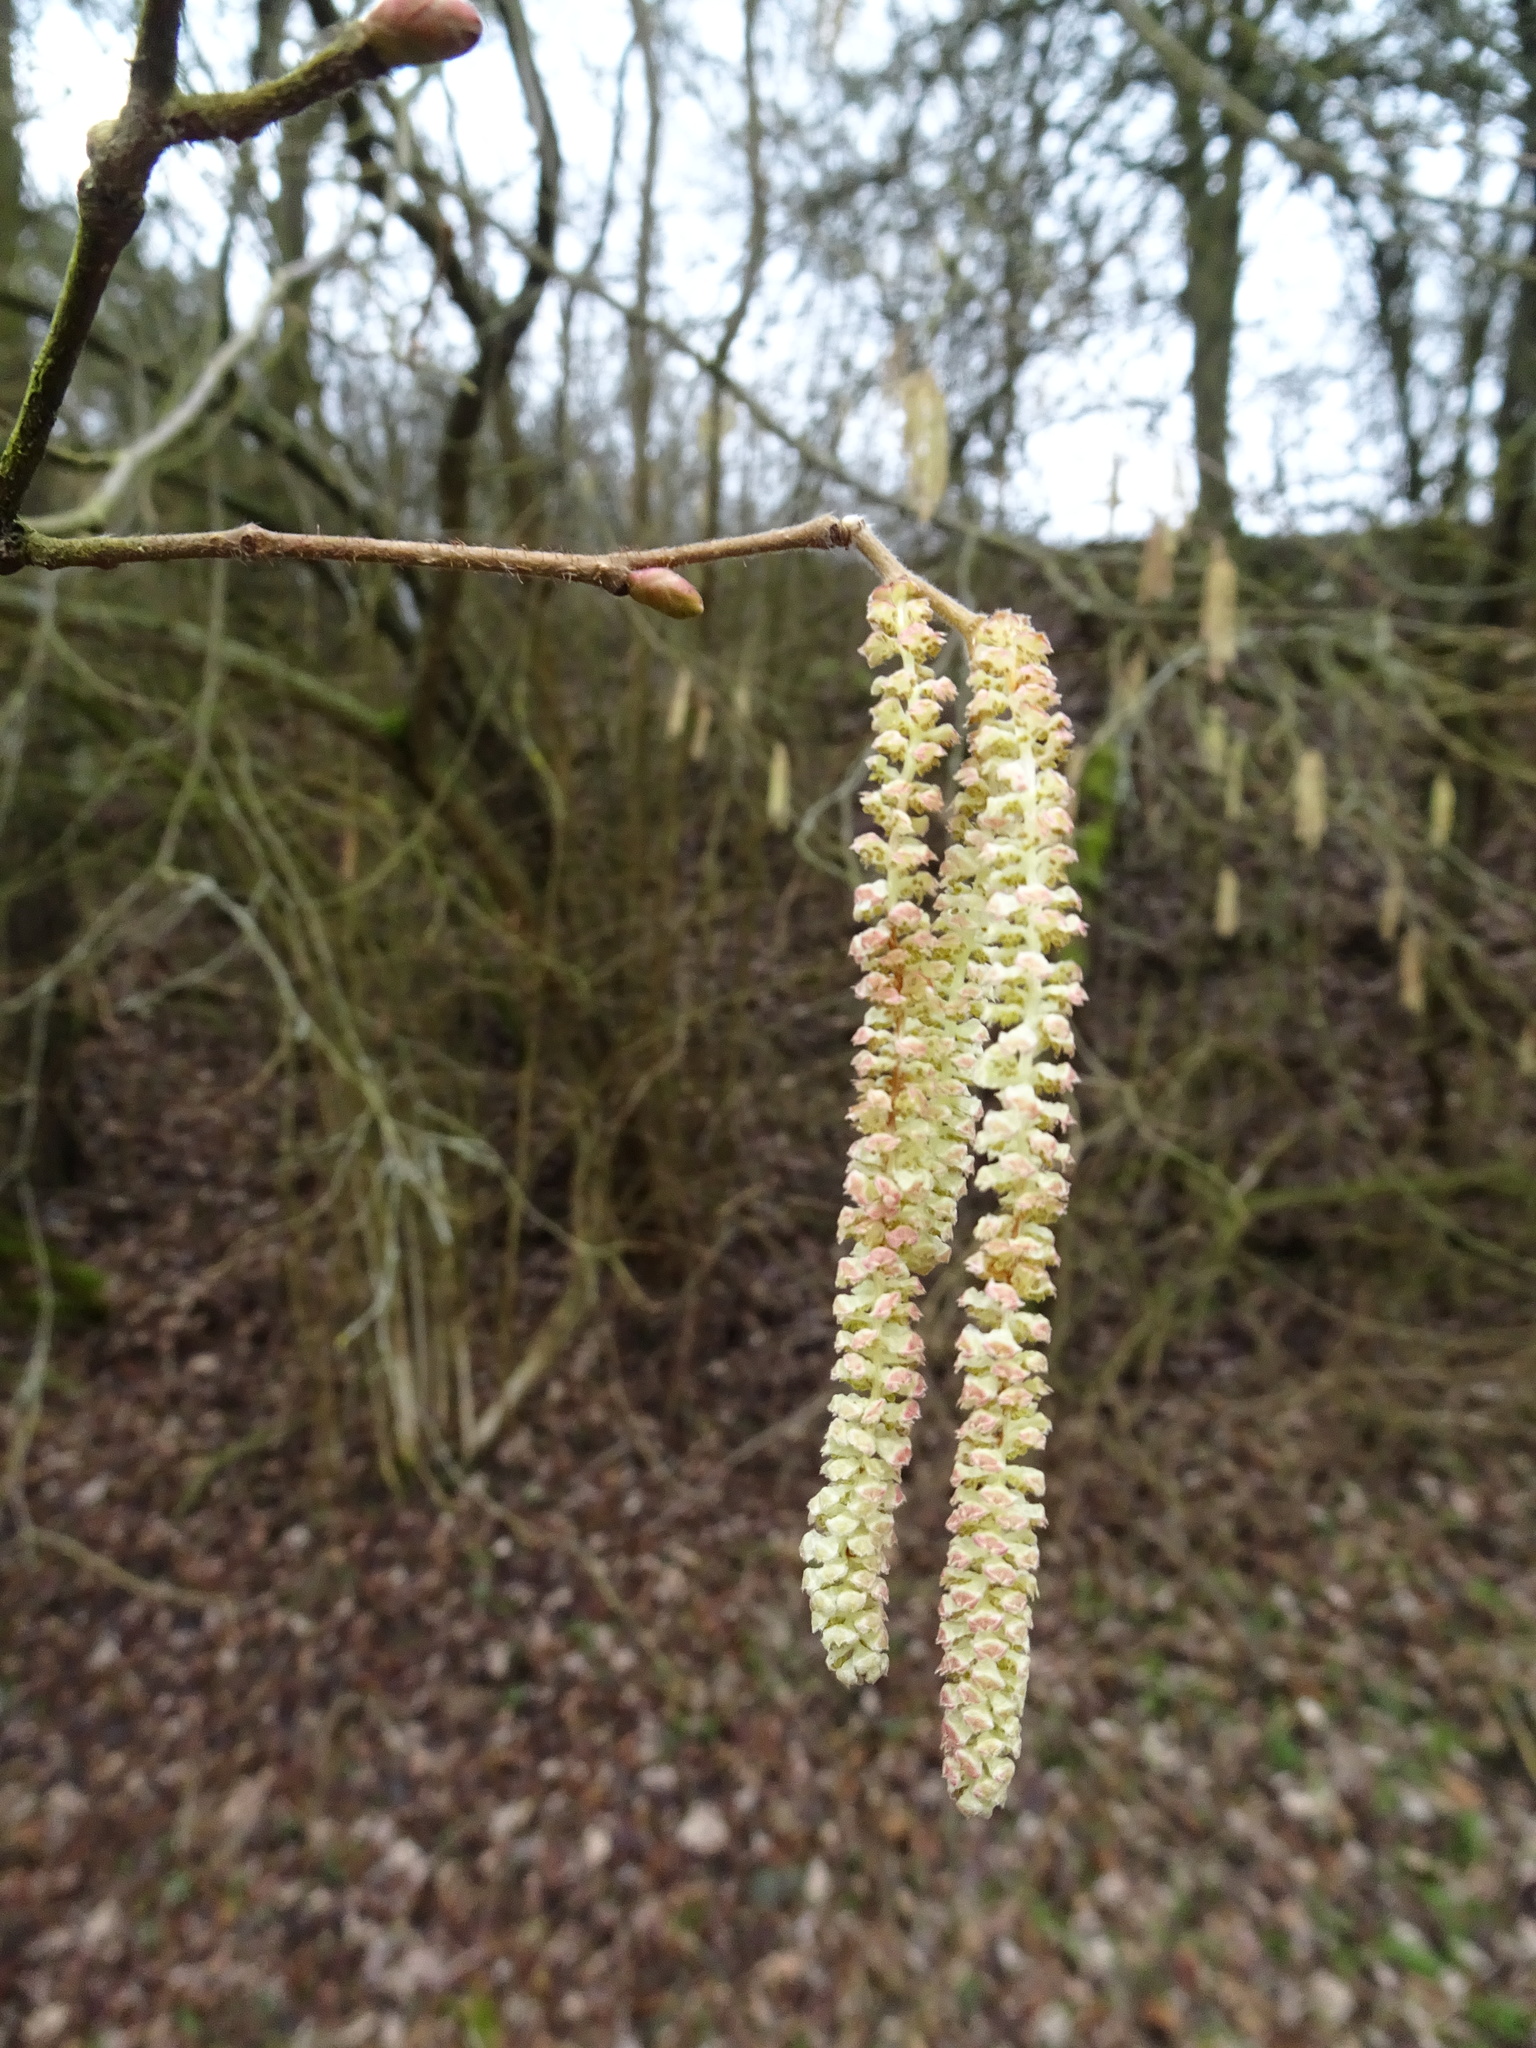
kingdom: Plantae
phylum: Tracheophyta
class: Magnoliopsida
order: Fagales
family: Betulaceae
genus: Corylus
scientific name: Corylus avellana
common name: European hazel
